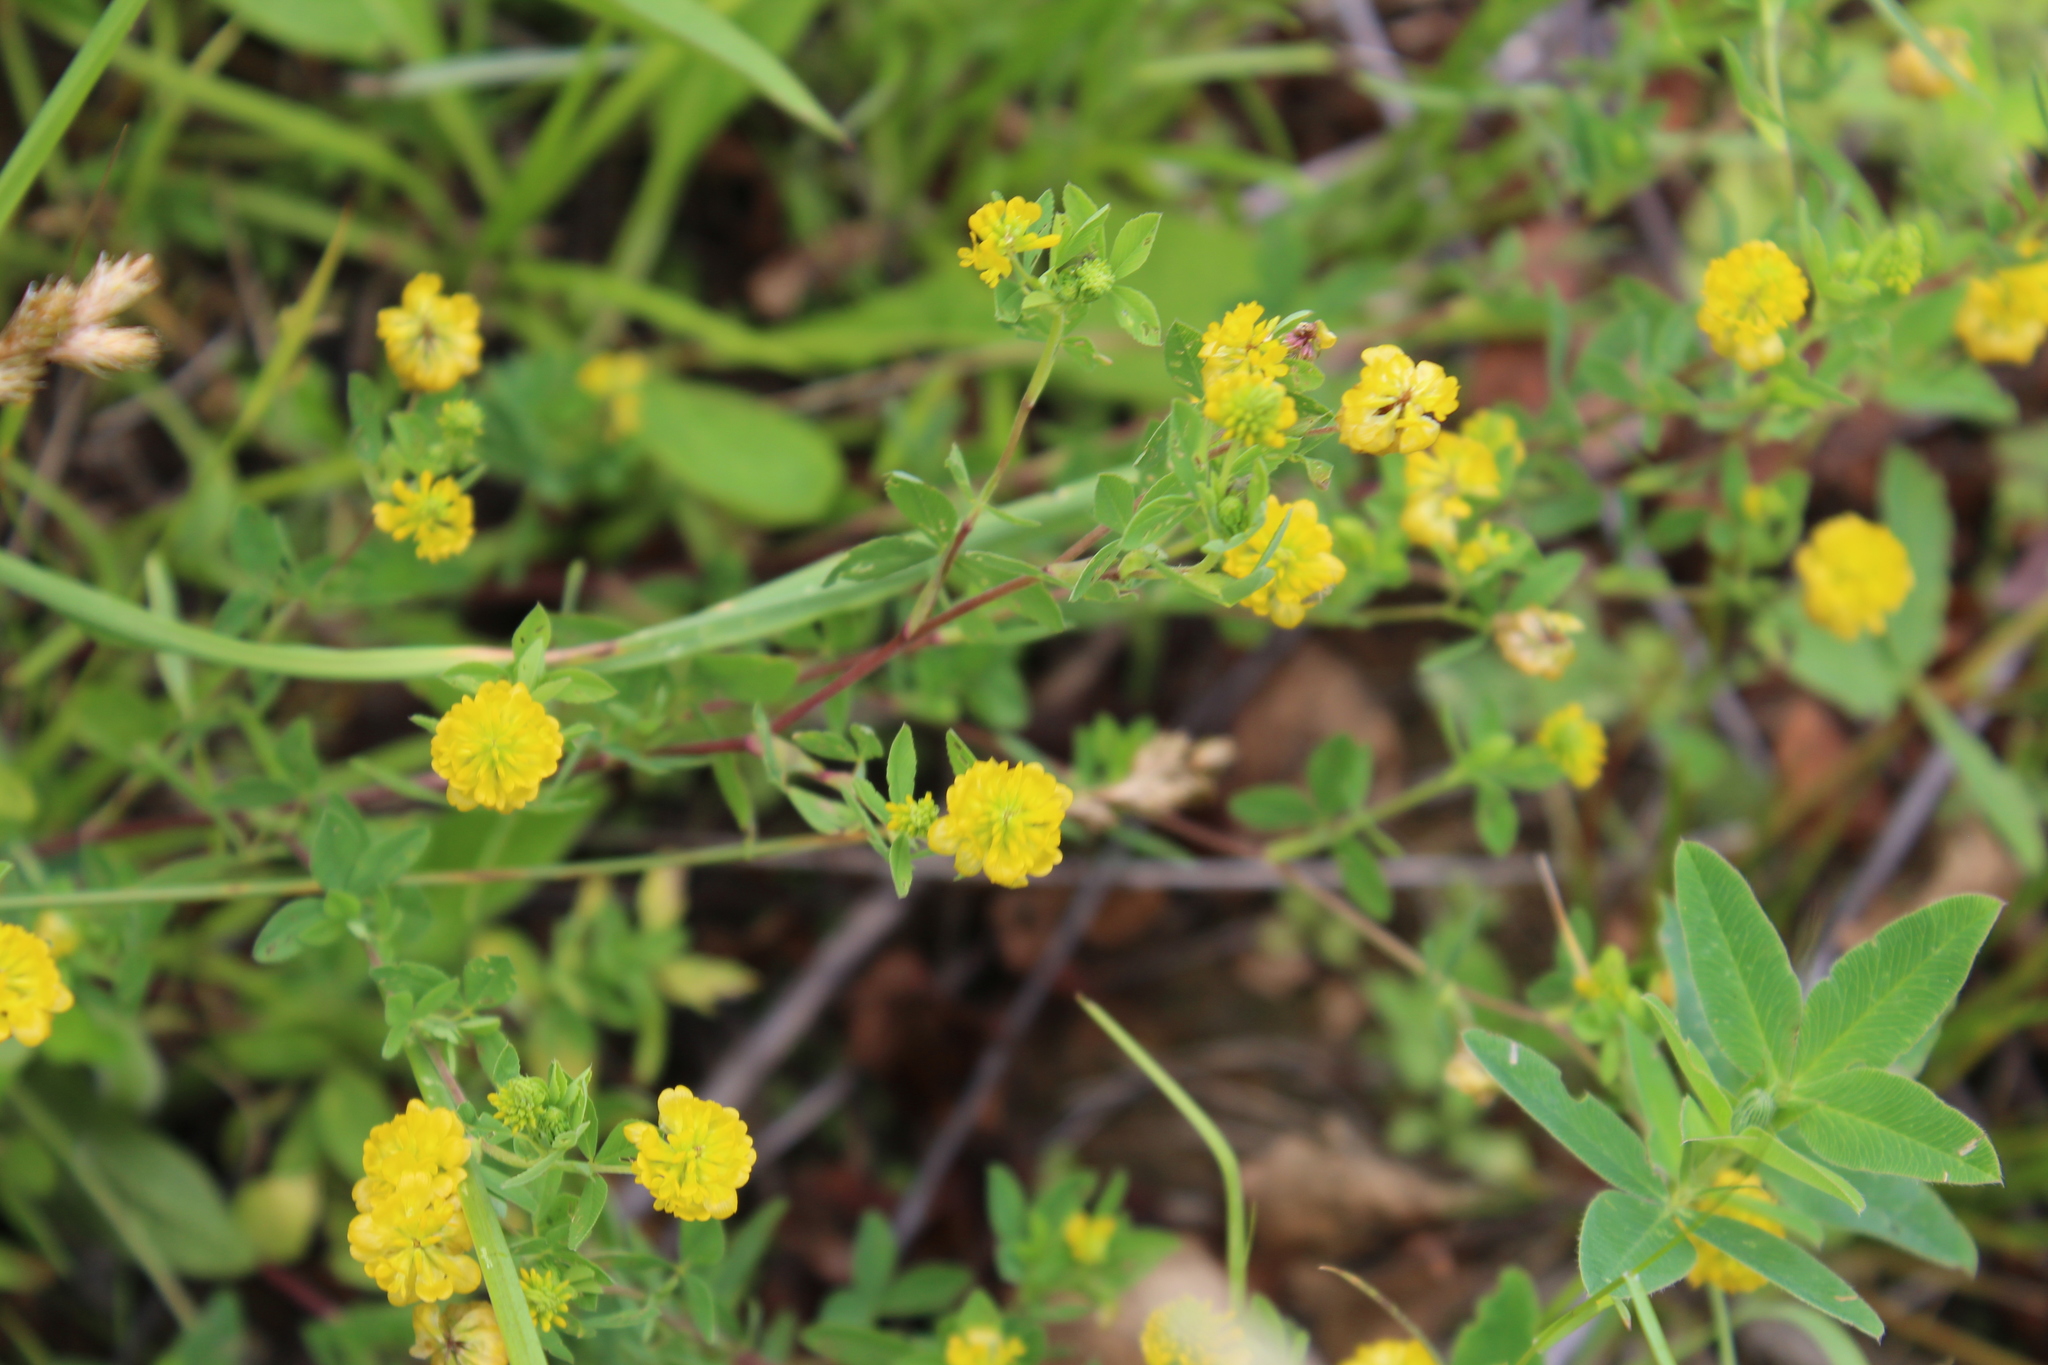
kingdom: Plantae
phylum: Tracheophyta
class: Magnoliopsida
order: Fabales
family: Fabaceae
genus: Trifolium
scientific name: Trifolium aureum
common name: Golden clover
